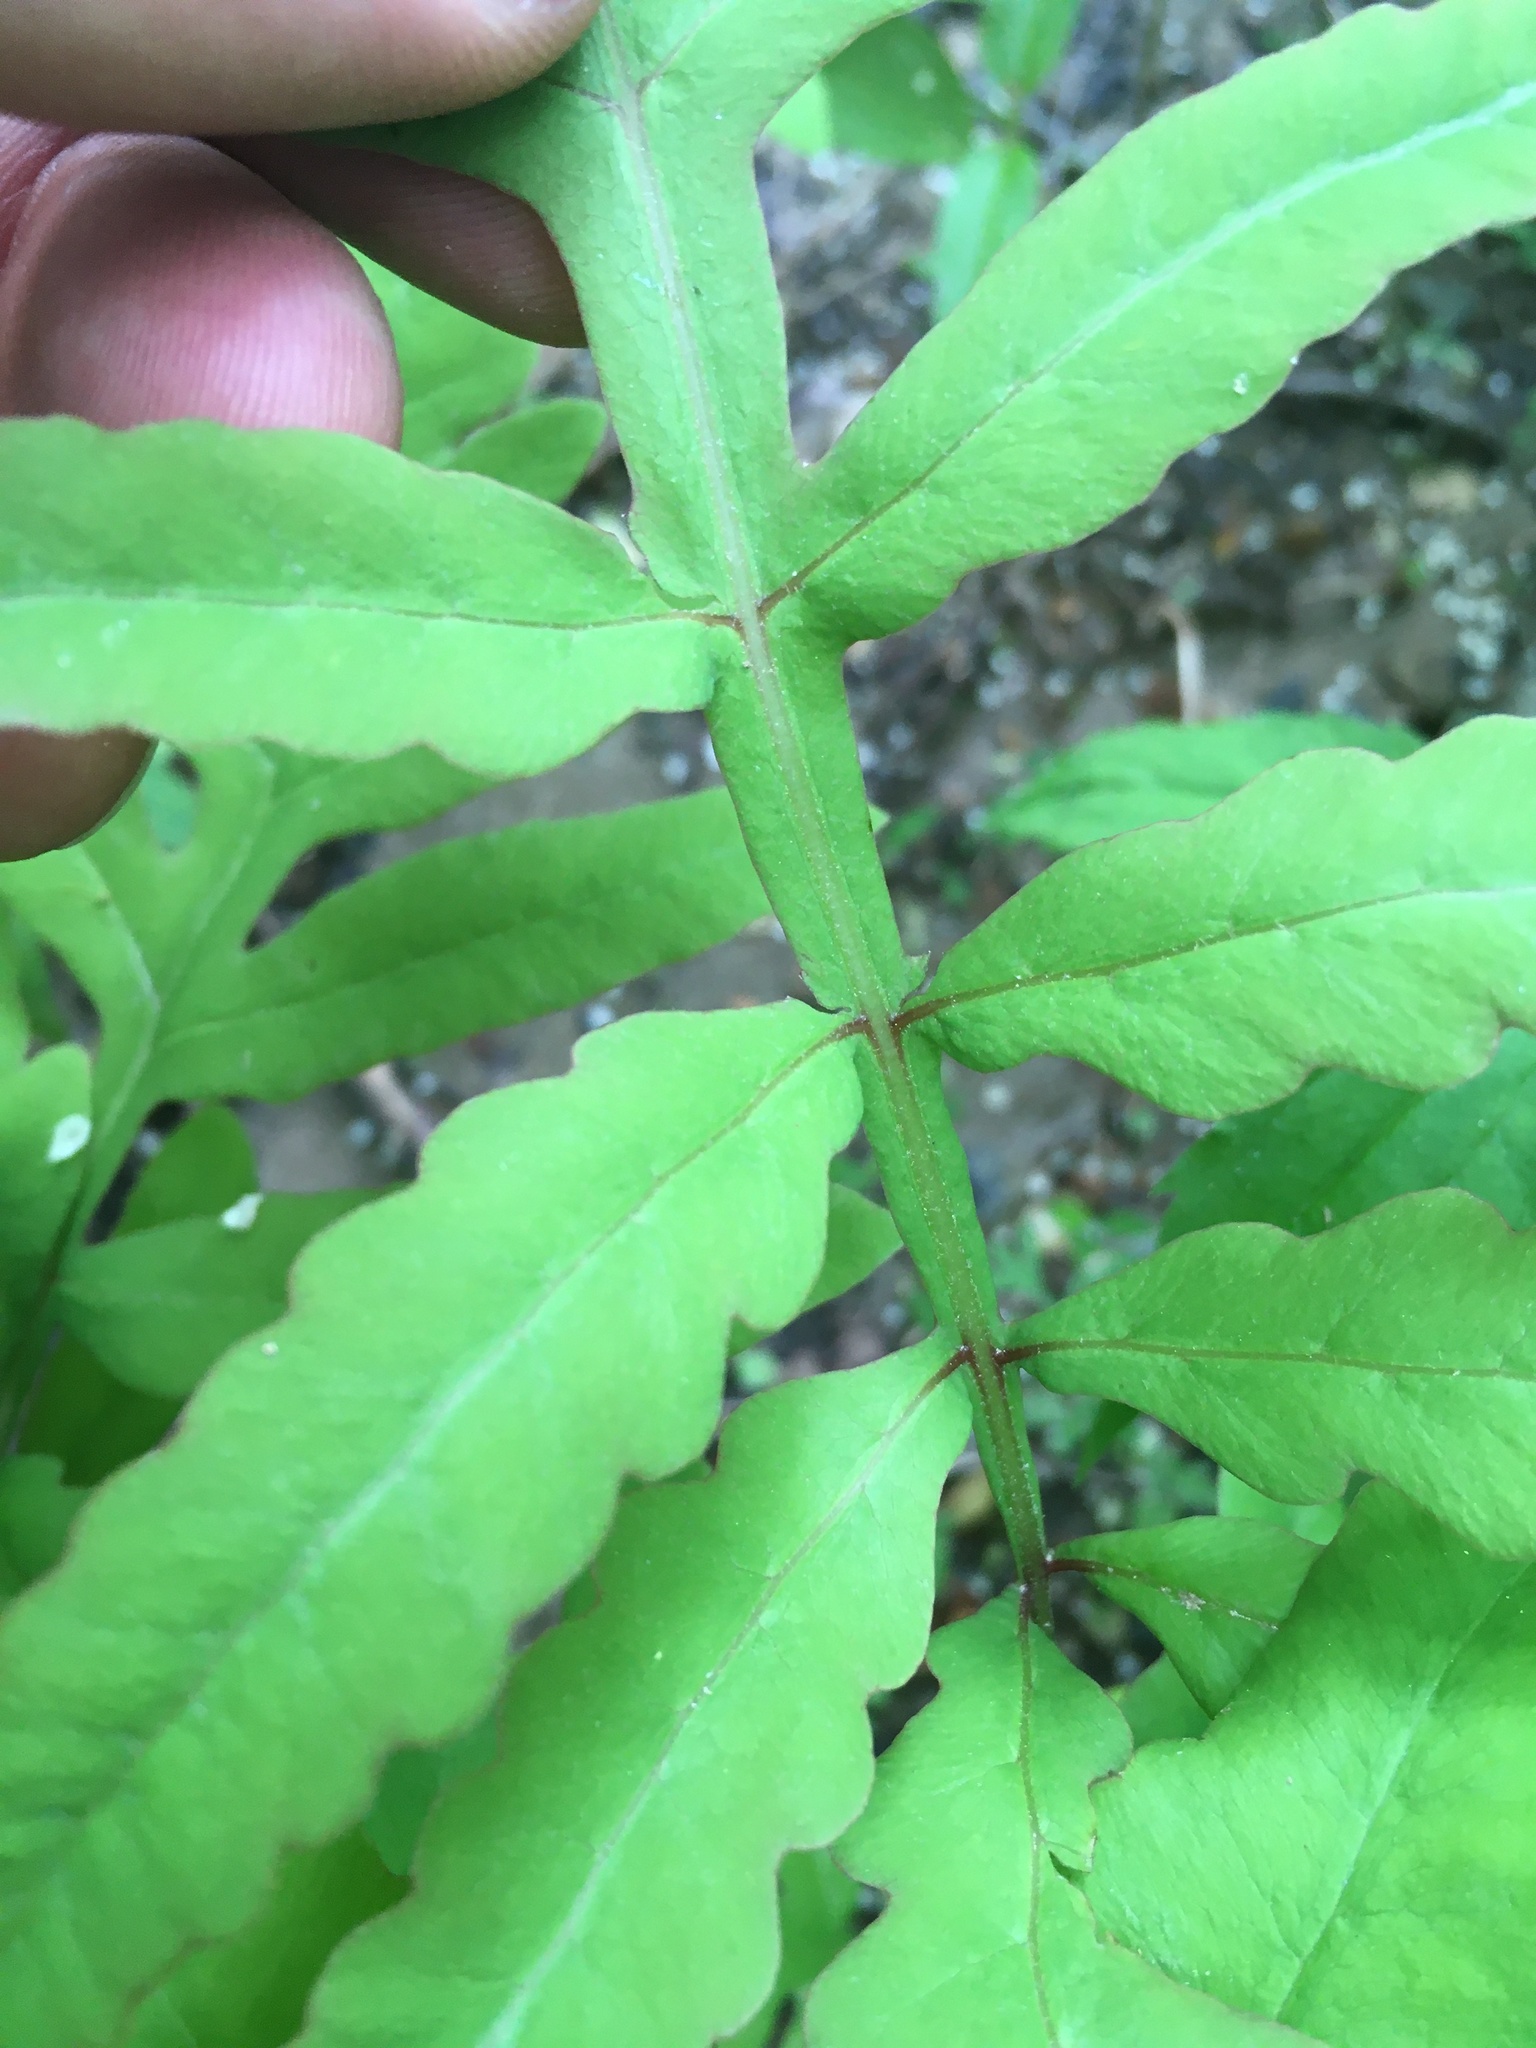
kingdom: Plantae
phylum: Tracheophyta
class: Polypodiopsida
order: Polypodiales
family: Onocleaceae
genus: Onoclea
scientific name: Onoclea sensibilis
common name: Sensitive fern
